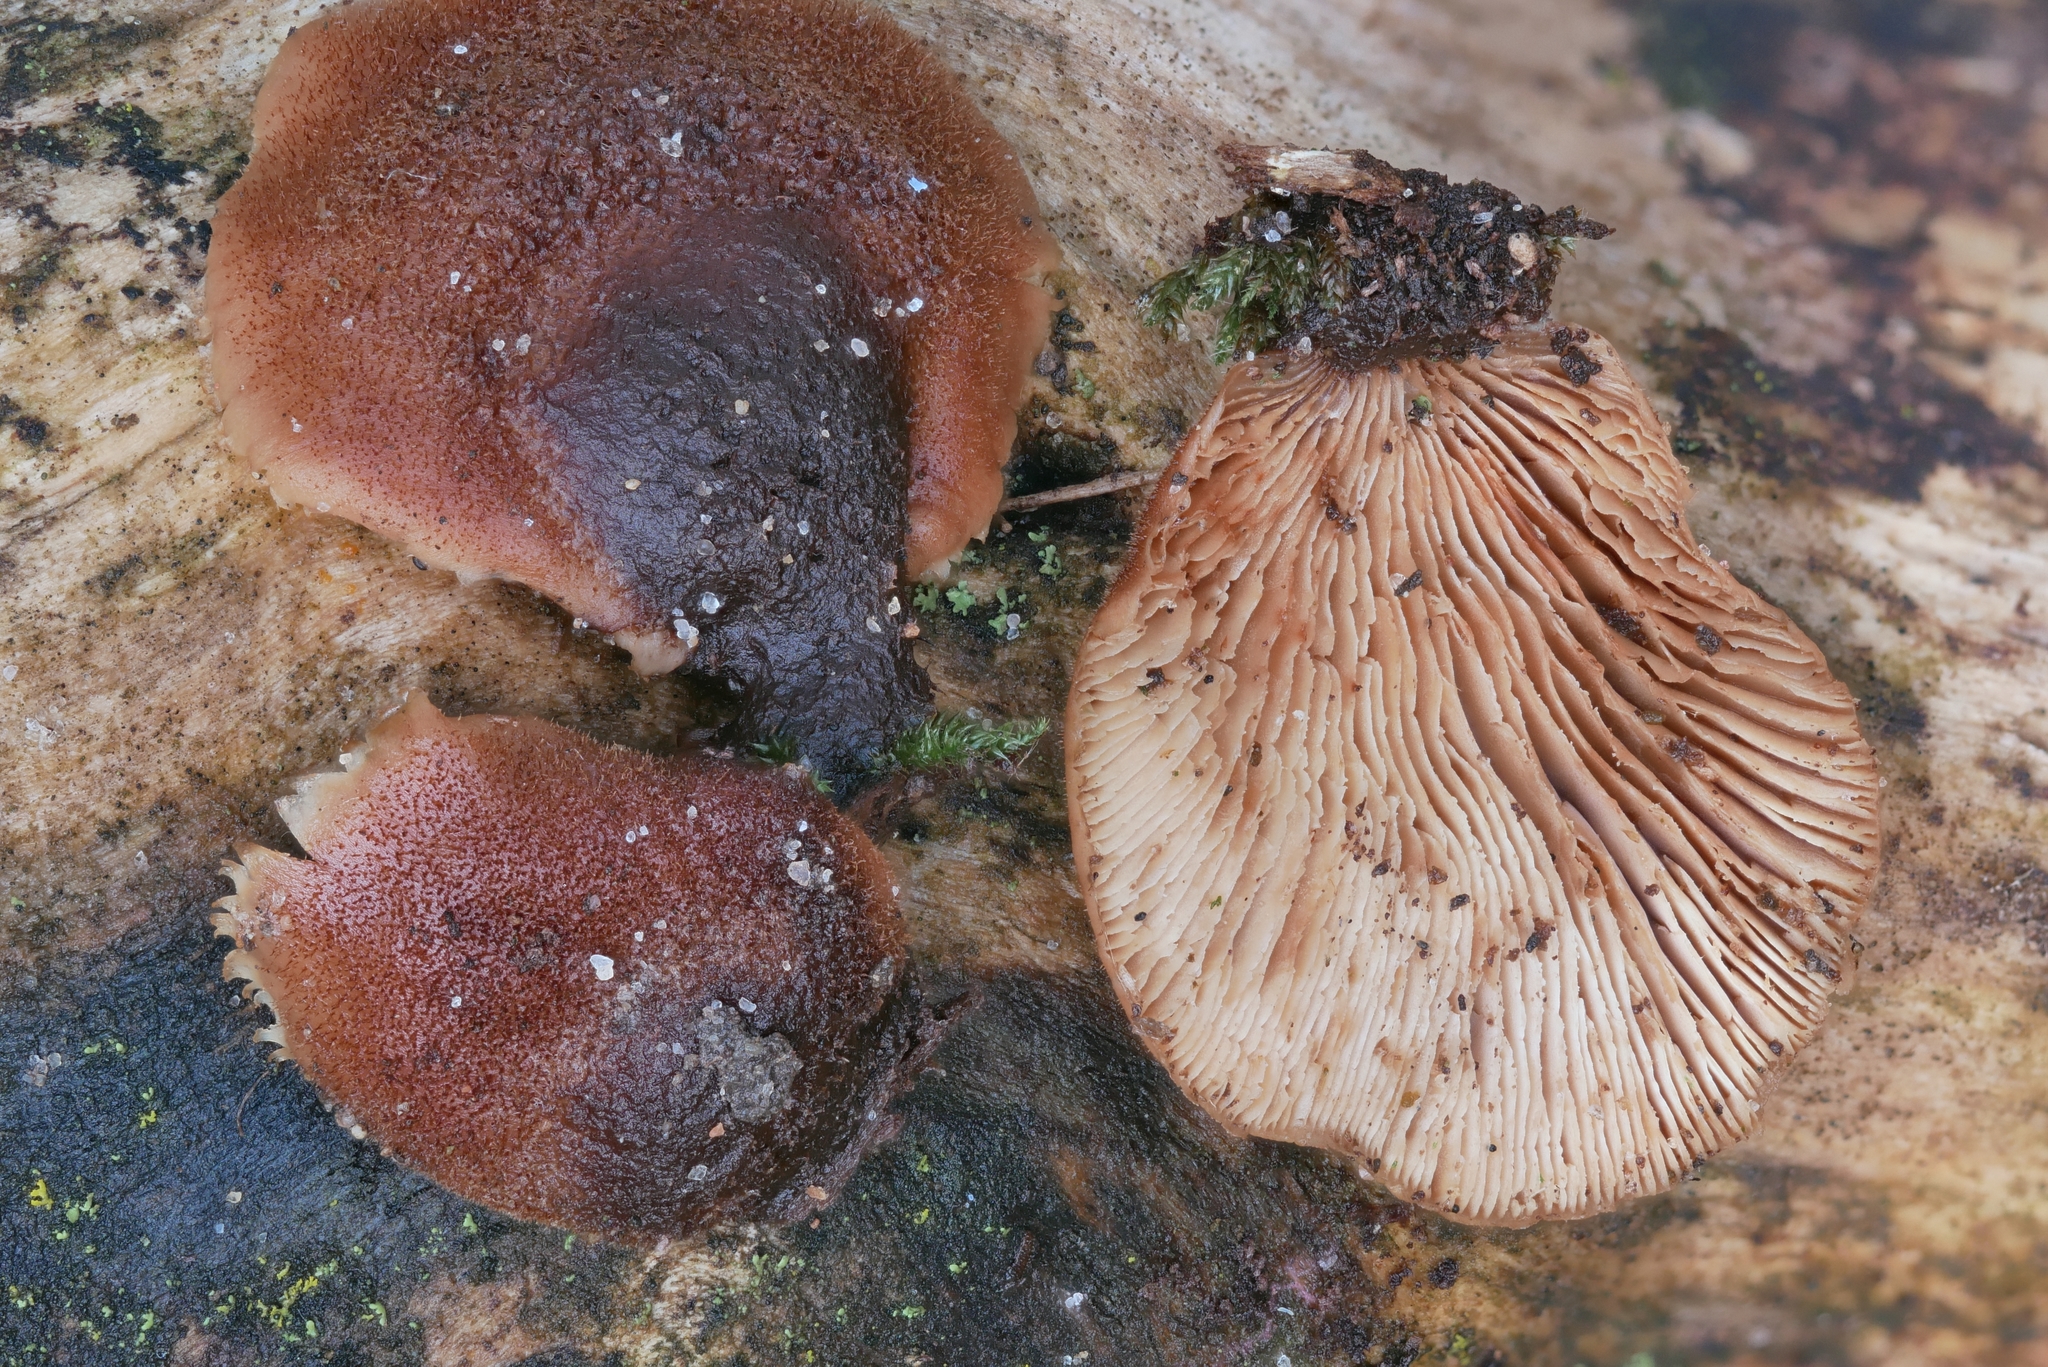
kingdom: Fungi
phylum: Basidiomycota
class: Agaricomycetes
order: Russulales
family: Auriscalpiaceae
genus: Lentinellus
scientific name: Lentinellus castoreus
